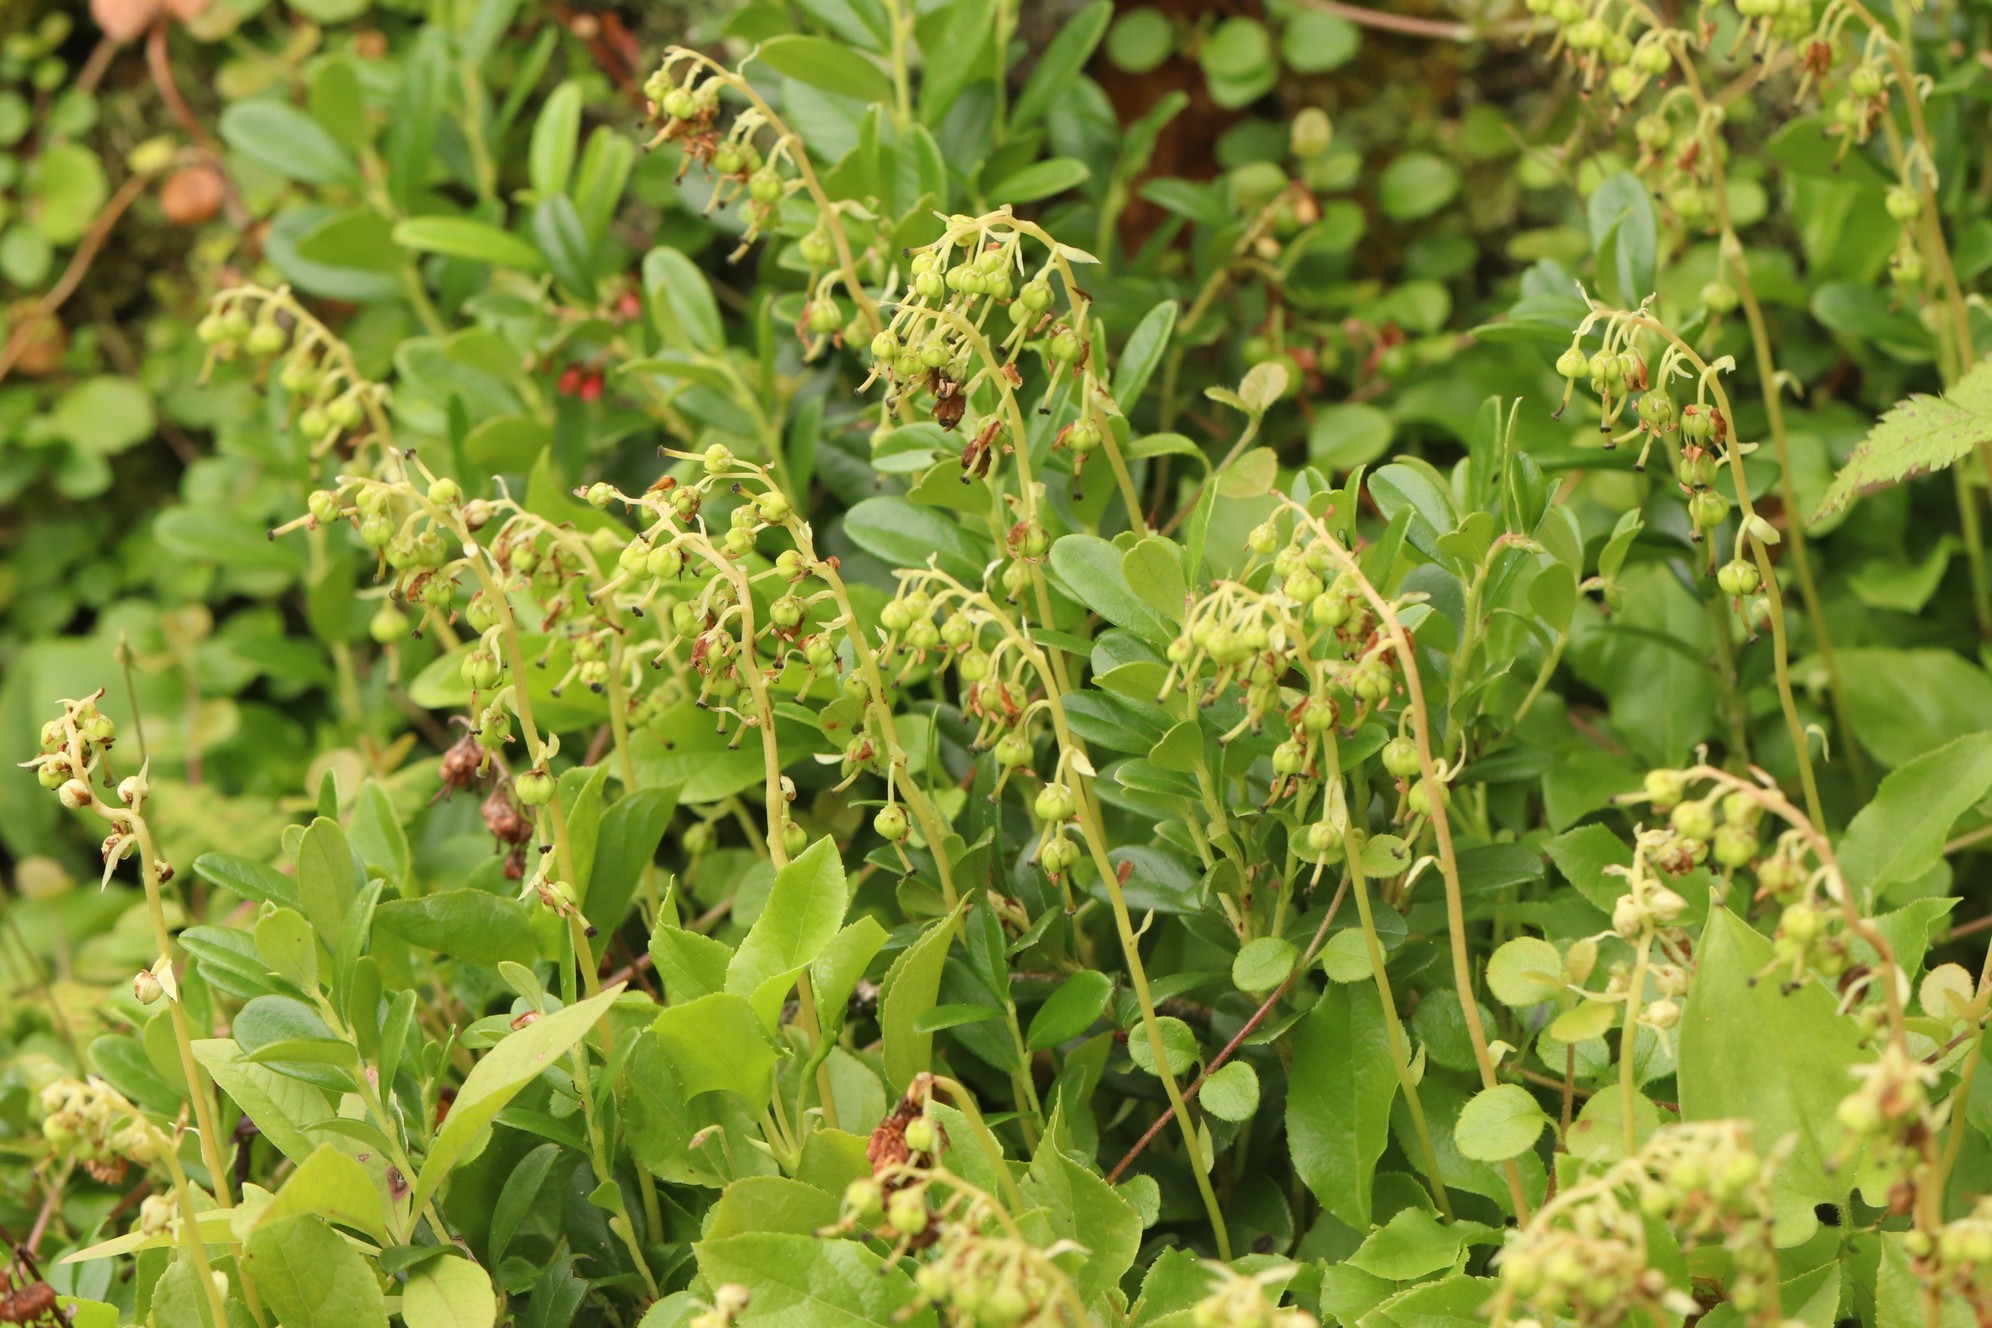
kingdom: Plantae
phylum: Tracheophyta
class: Magnoliopsida
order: Ericales
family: Ericaceae
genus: Orthilia
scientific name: Orthilia secunda
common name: One-sided orthilia
